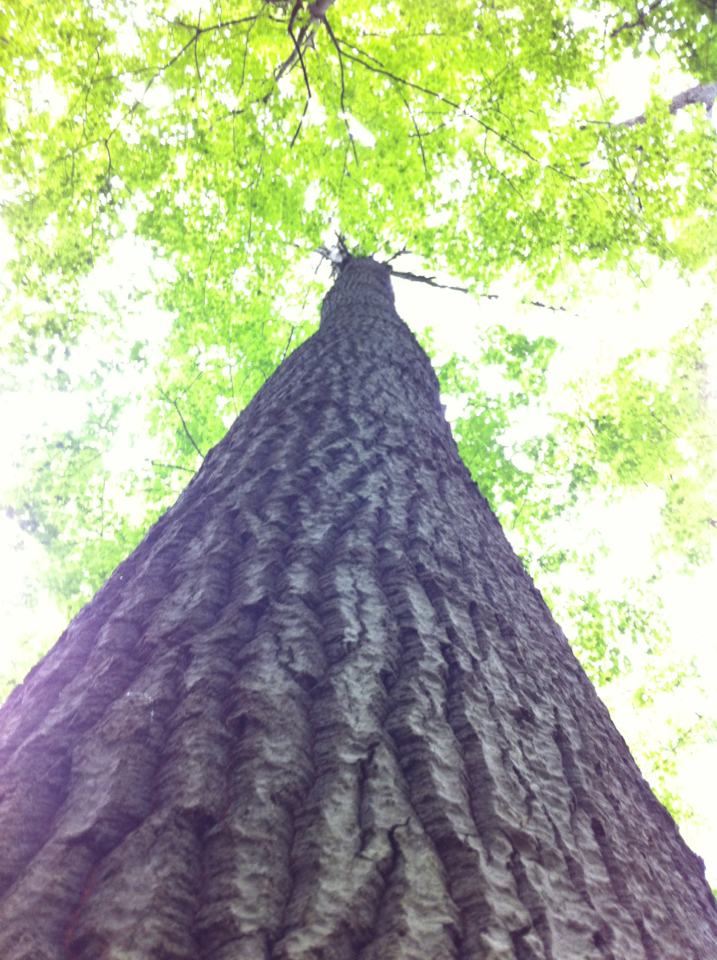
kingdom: Plantae
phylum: Tracheophyta
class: Magnoliopsida
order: Malpighiales
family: Salicaceae
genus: Populus
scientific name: Populus grandidentata
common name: Bigtooth aspen
